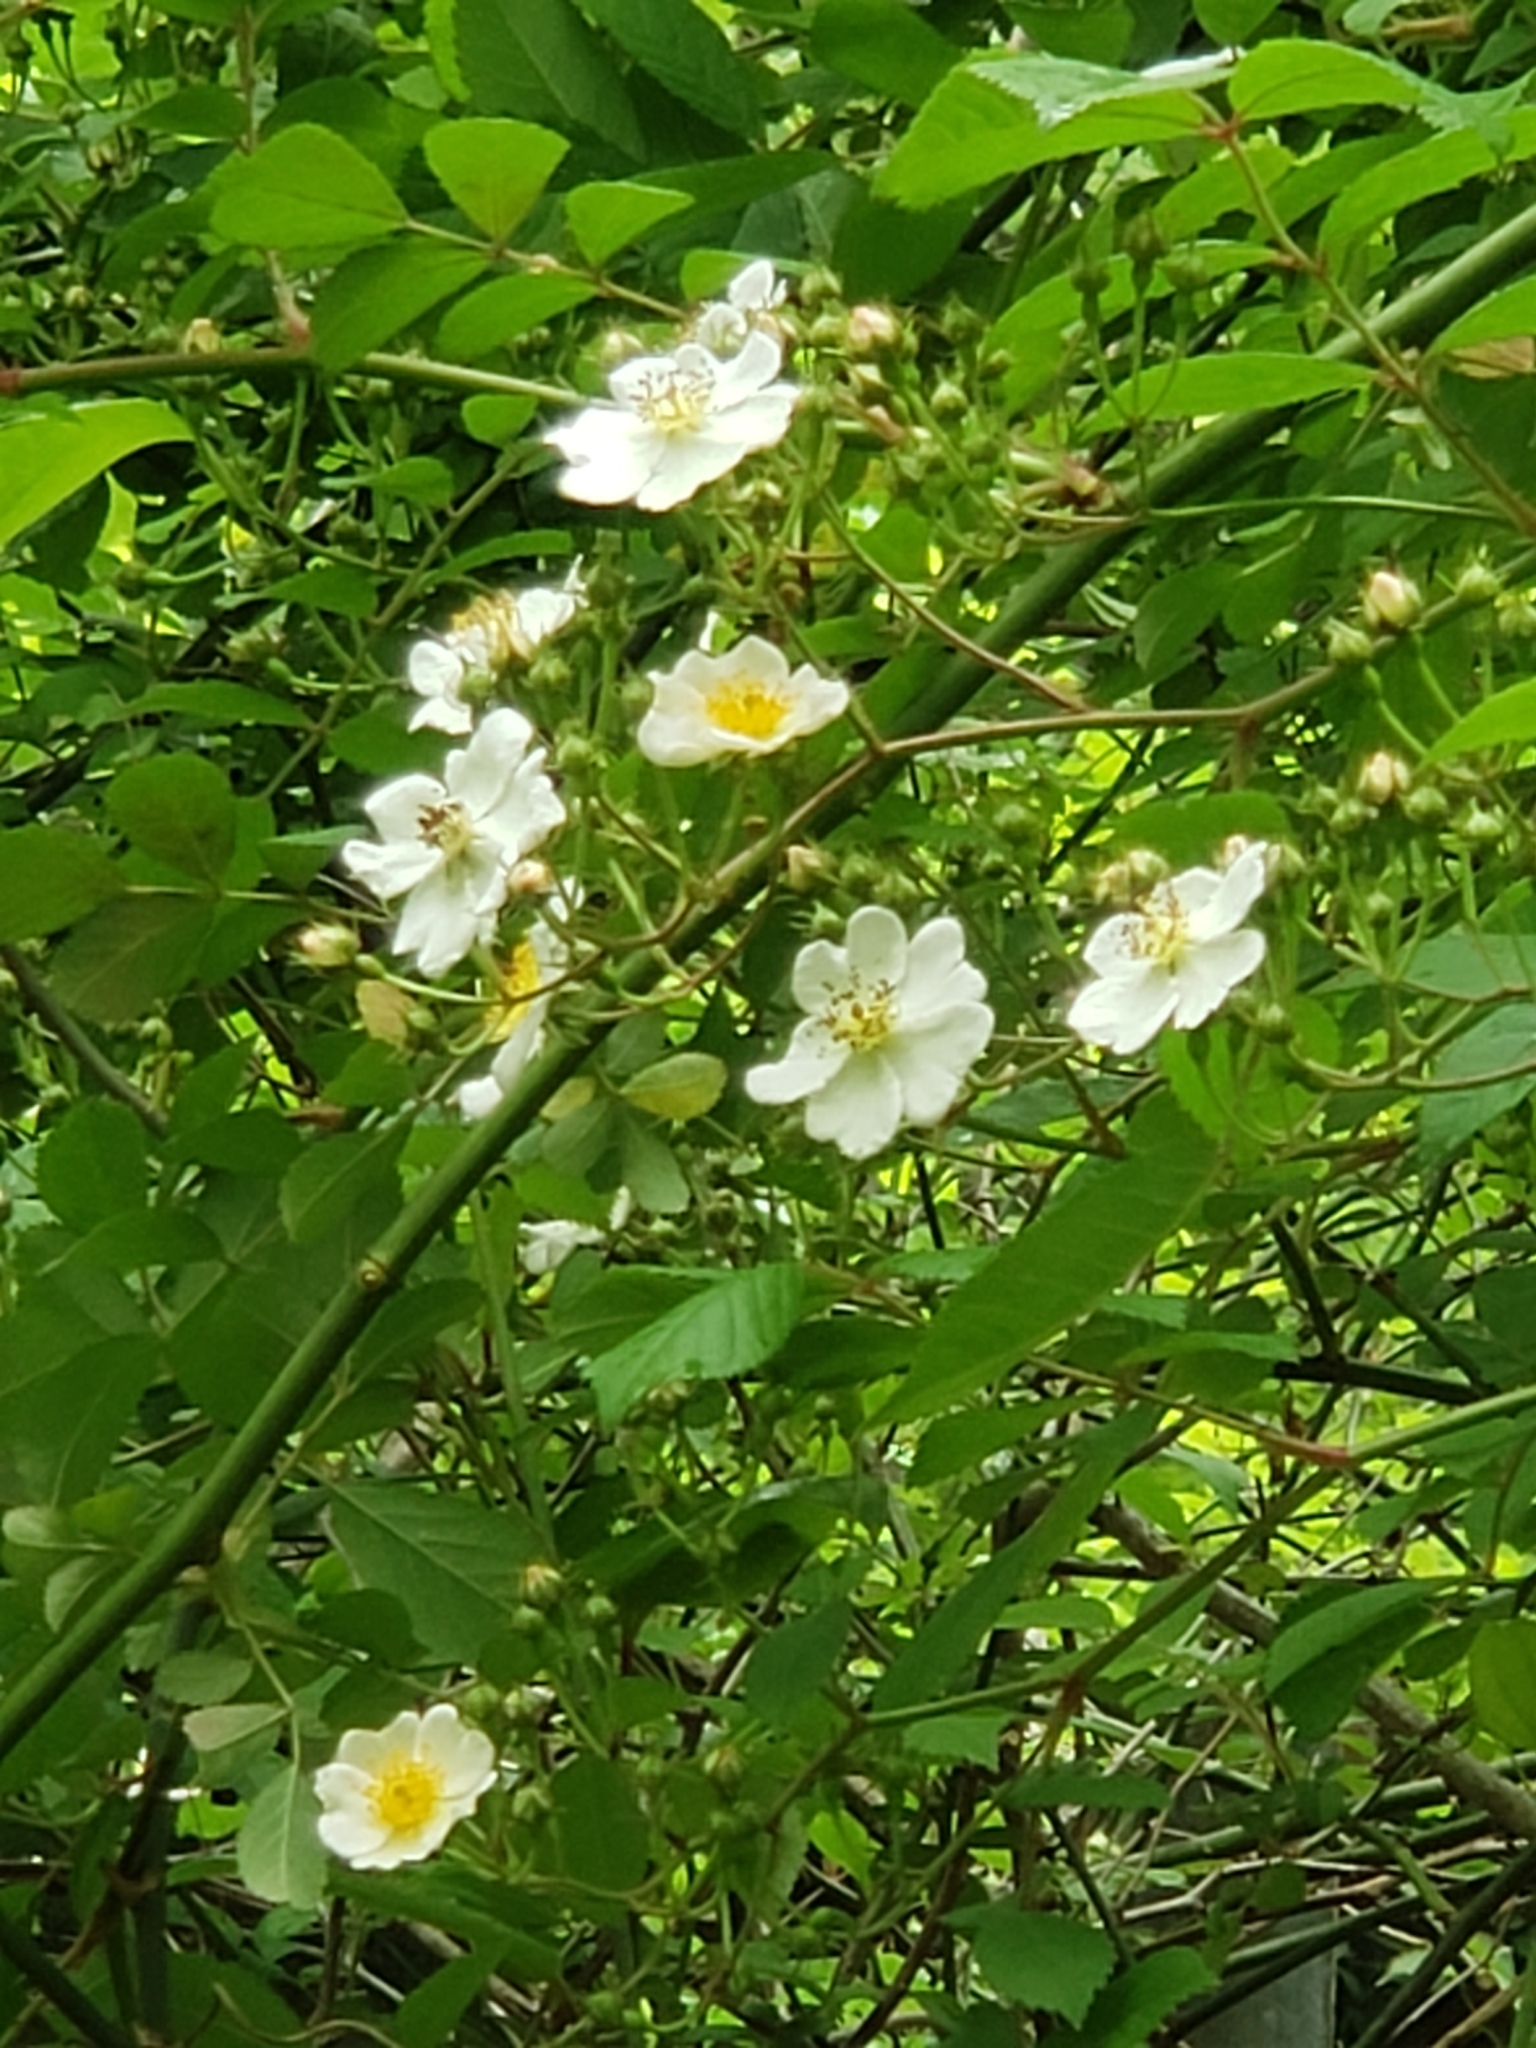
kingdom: Plantae
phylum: Tracheophyta
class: Magnoliopsida
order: Rosales
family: Rosaceae
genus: Rosa
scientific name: Rosa multiflora
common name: Multiflora rose
